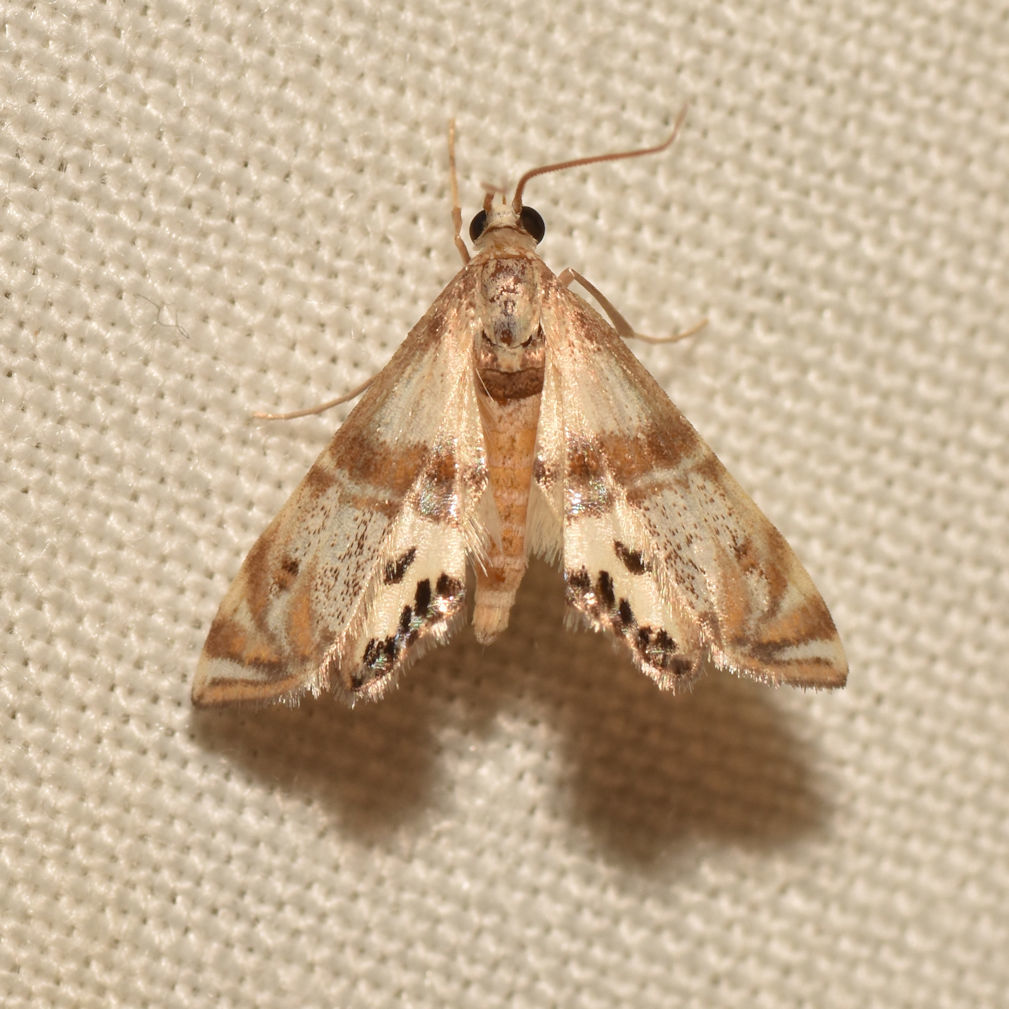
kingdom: Animalia
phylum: Arthropoda
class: Insecta
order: Lepidoptera
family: Crambidae
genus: Petrophila
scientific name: Petrophila bifascialis
